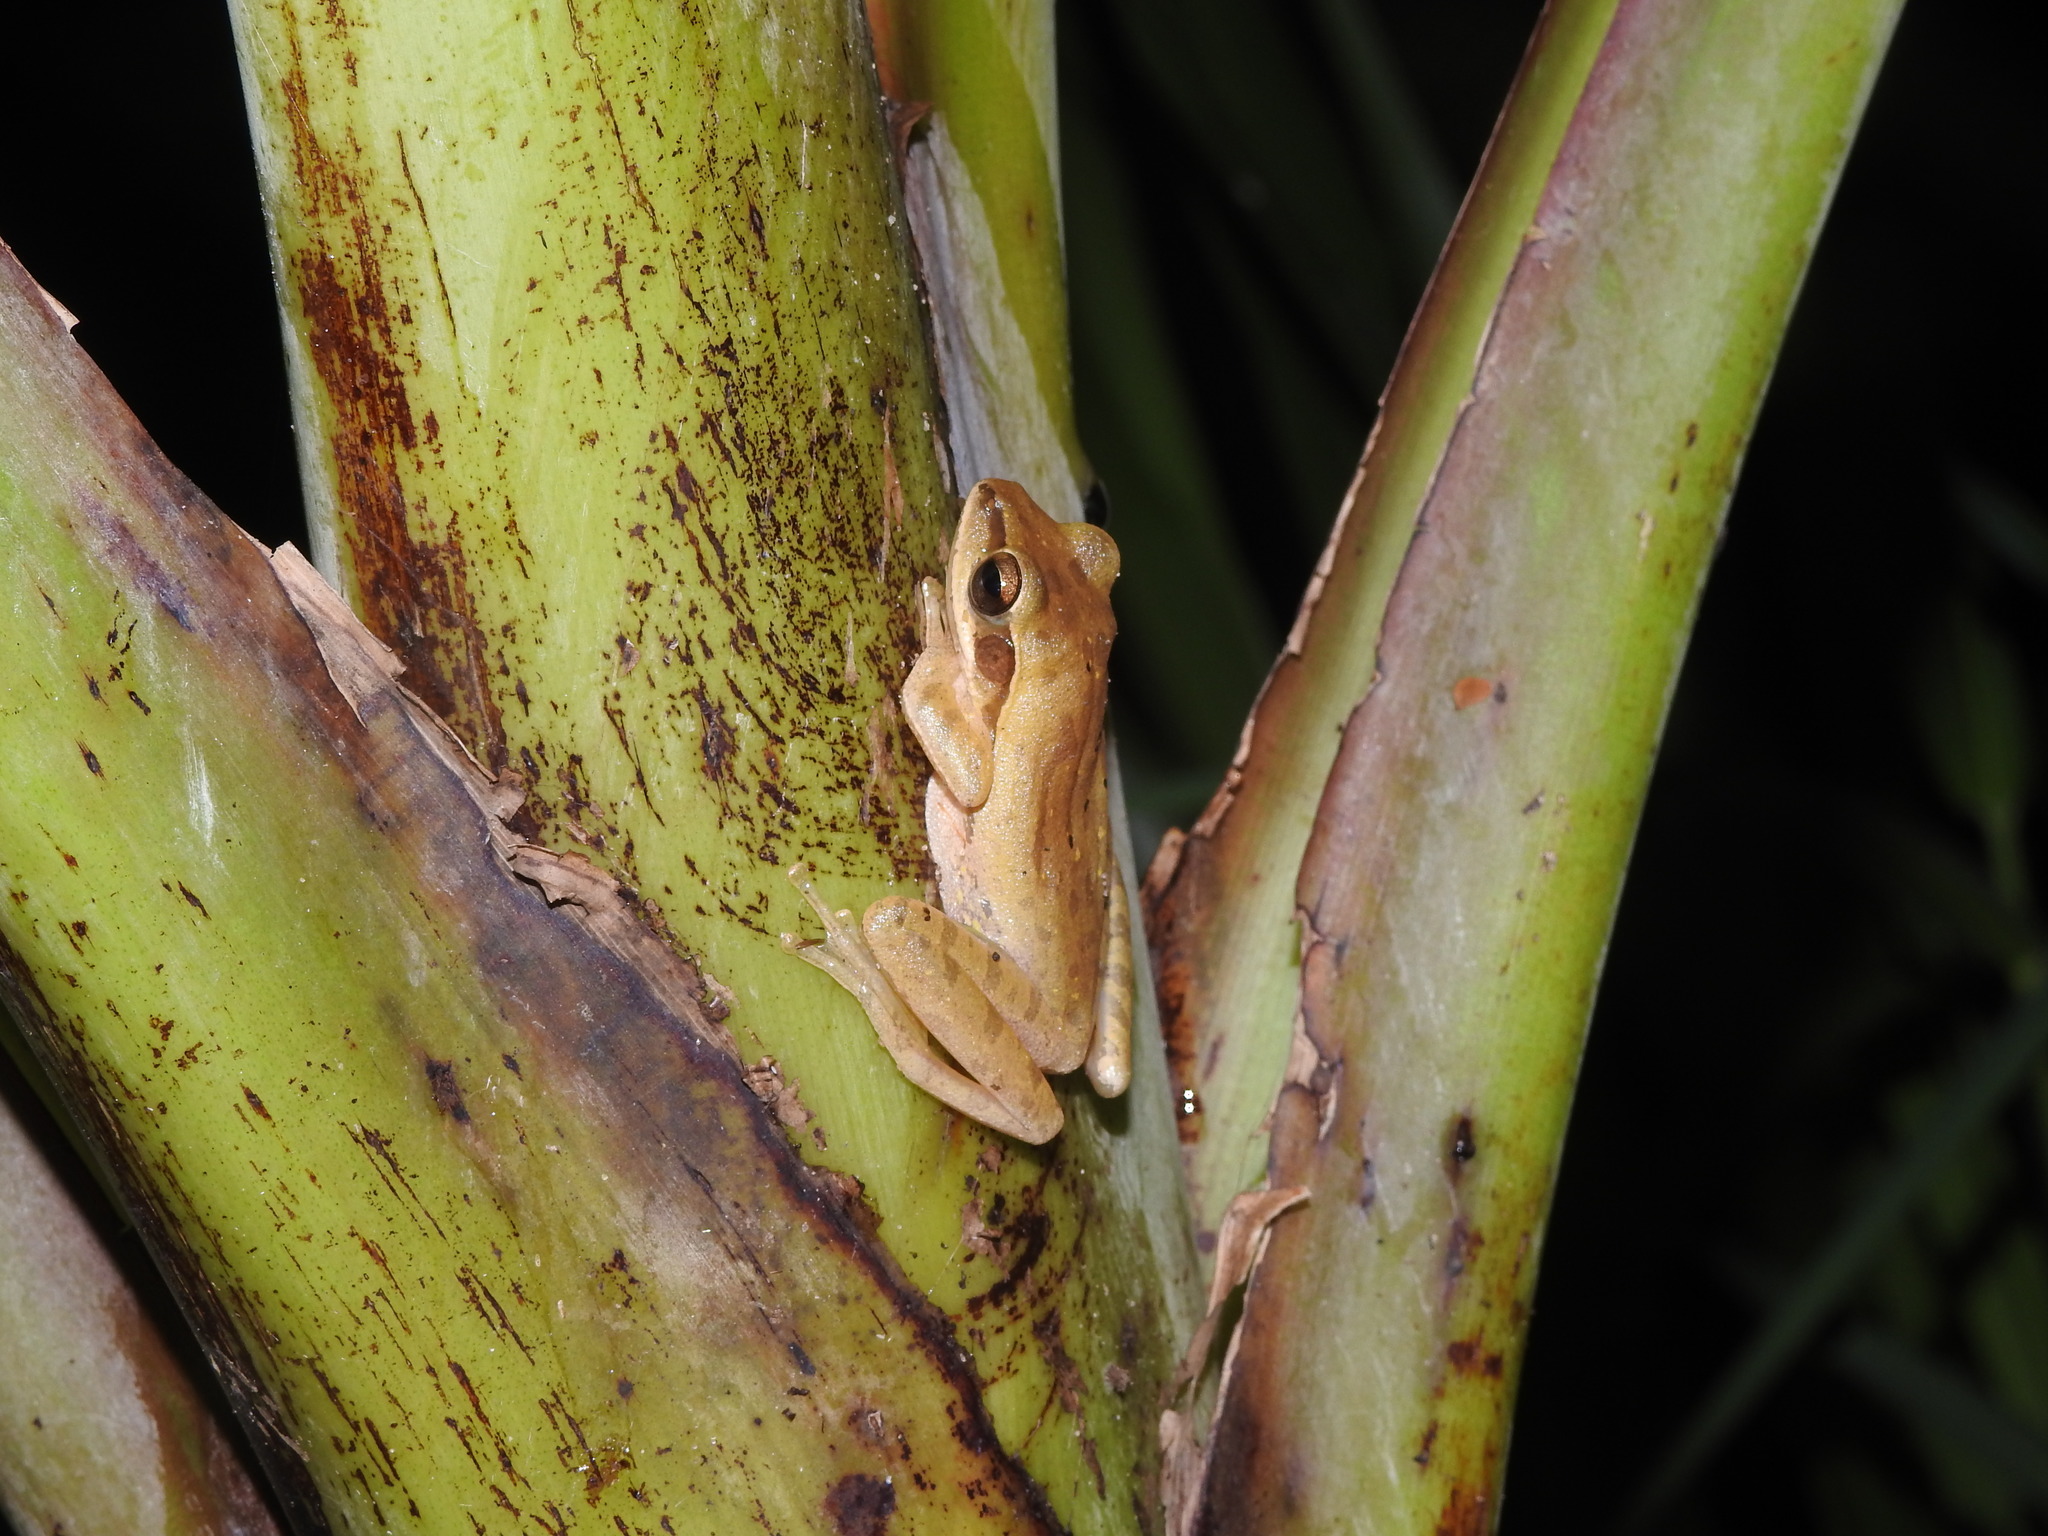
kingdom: Animalia
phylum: Chordata
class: Amphibia
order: Anura
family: Rhacophoridae
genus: Polypedates
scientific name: Polypedates maculatus
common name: Himalayan tree frog
